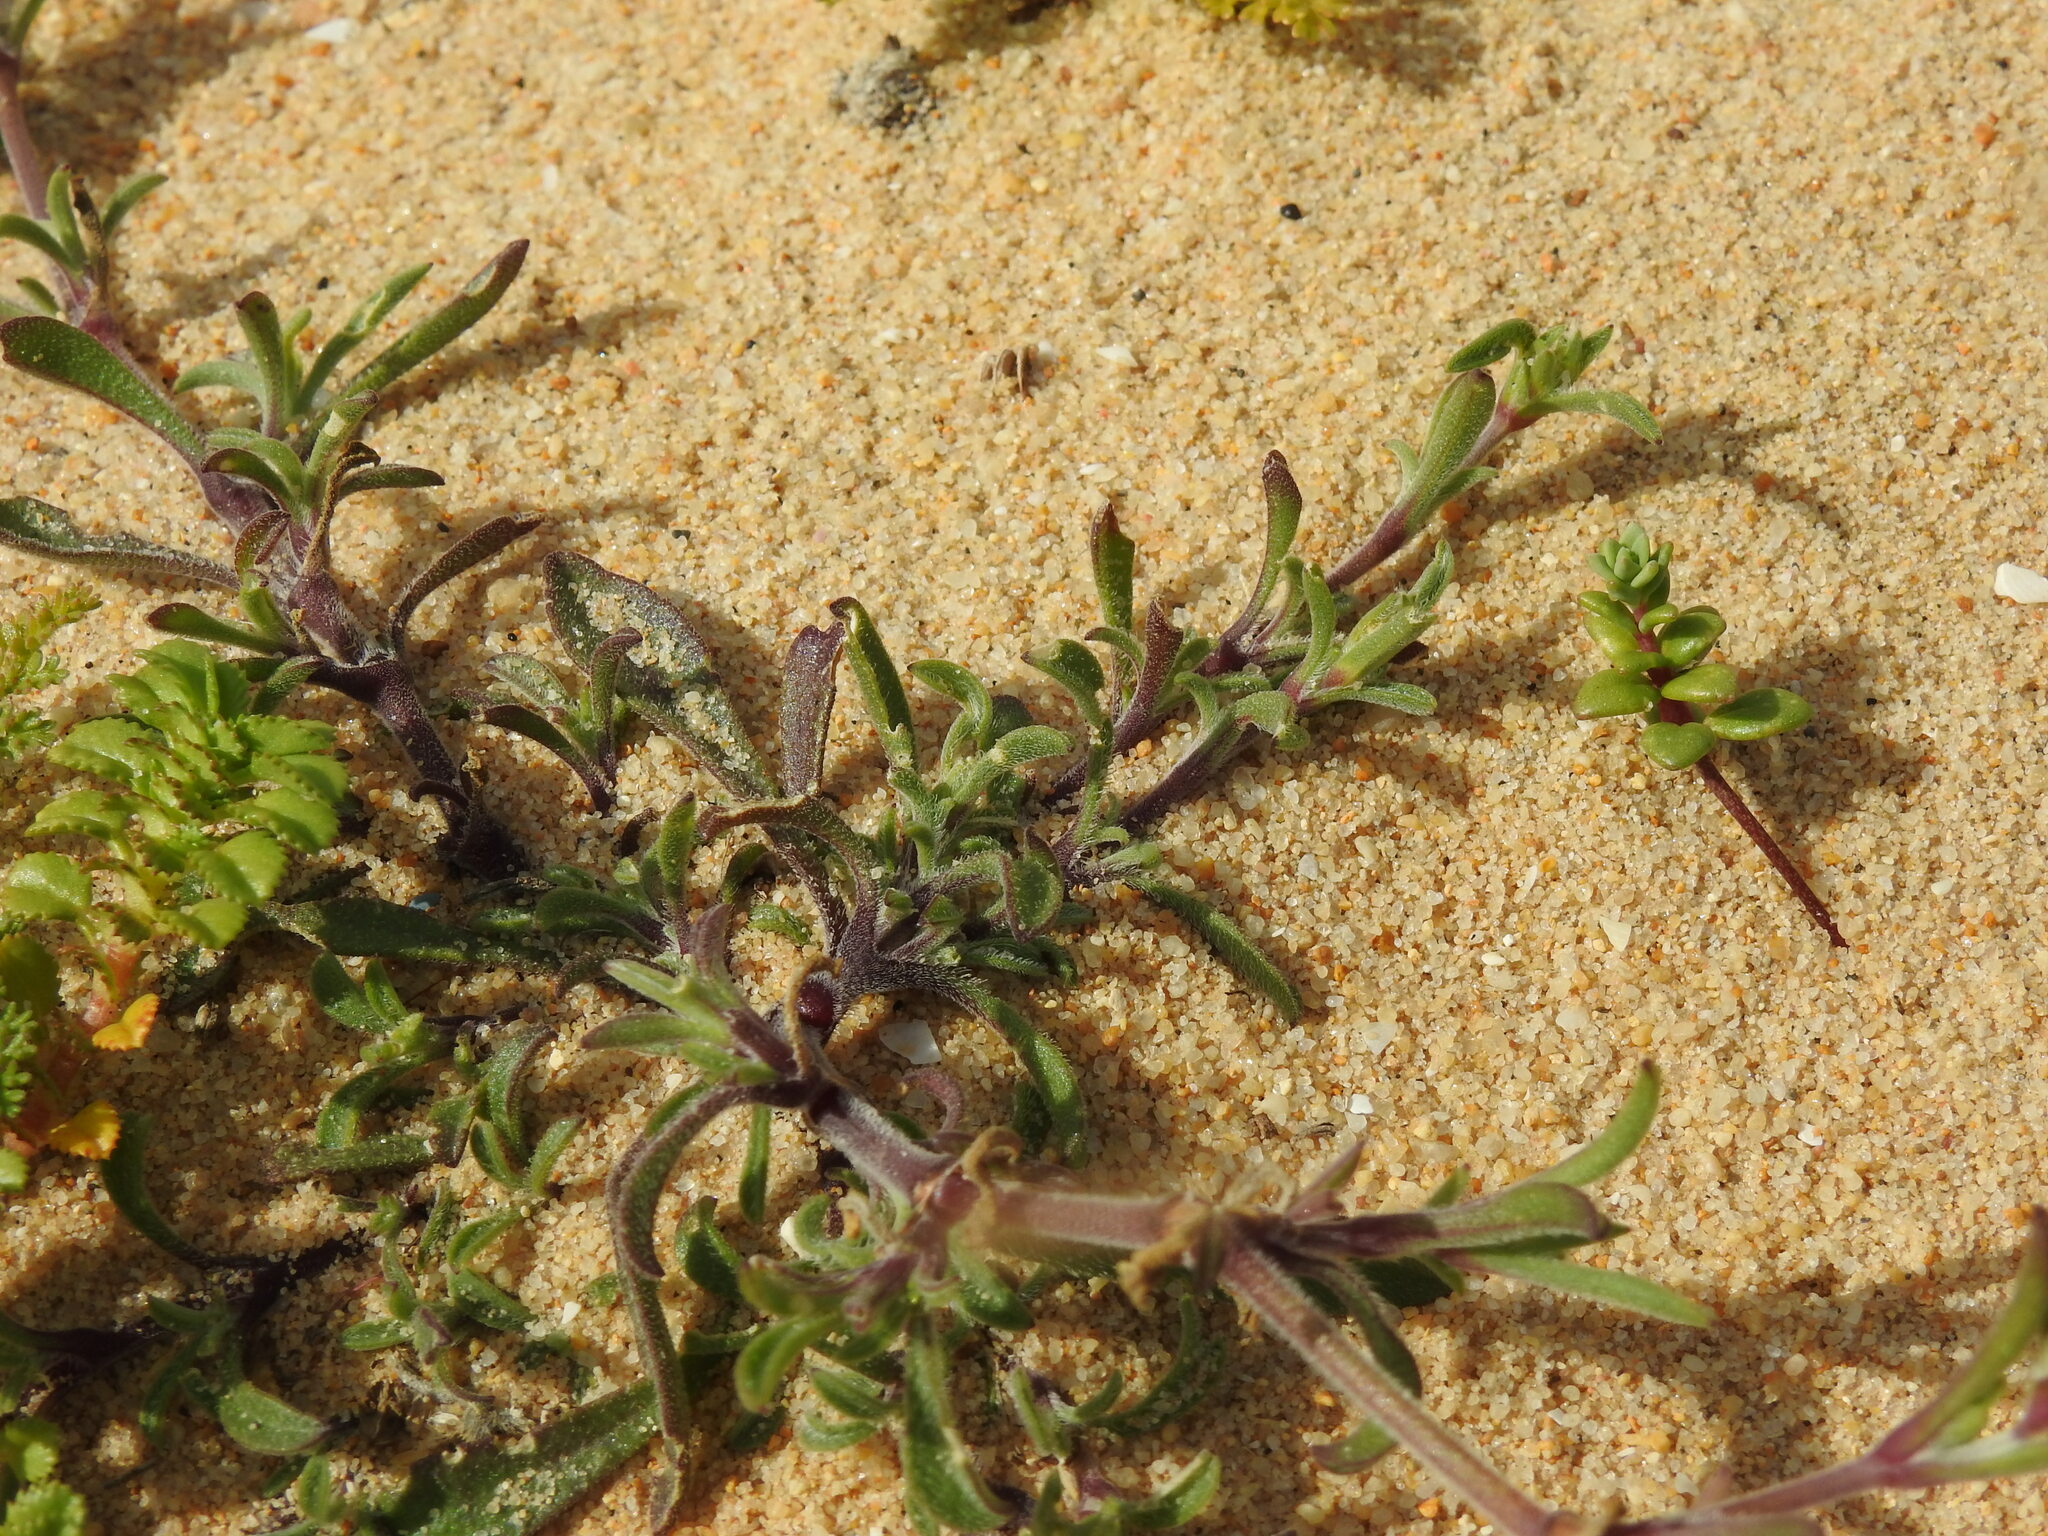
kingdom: Plantae
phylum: Tracheophyta
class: Magnoliopsida
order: Caryophyllales
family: Caryophyllaceae
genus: Silene
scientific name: Silene colorata
